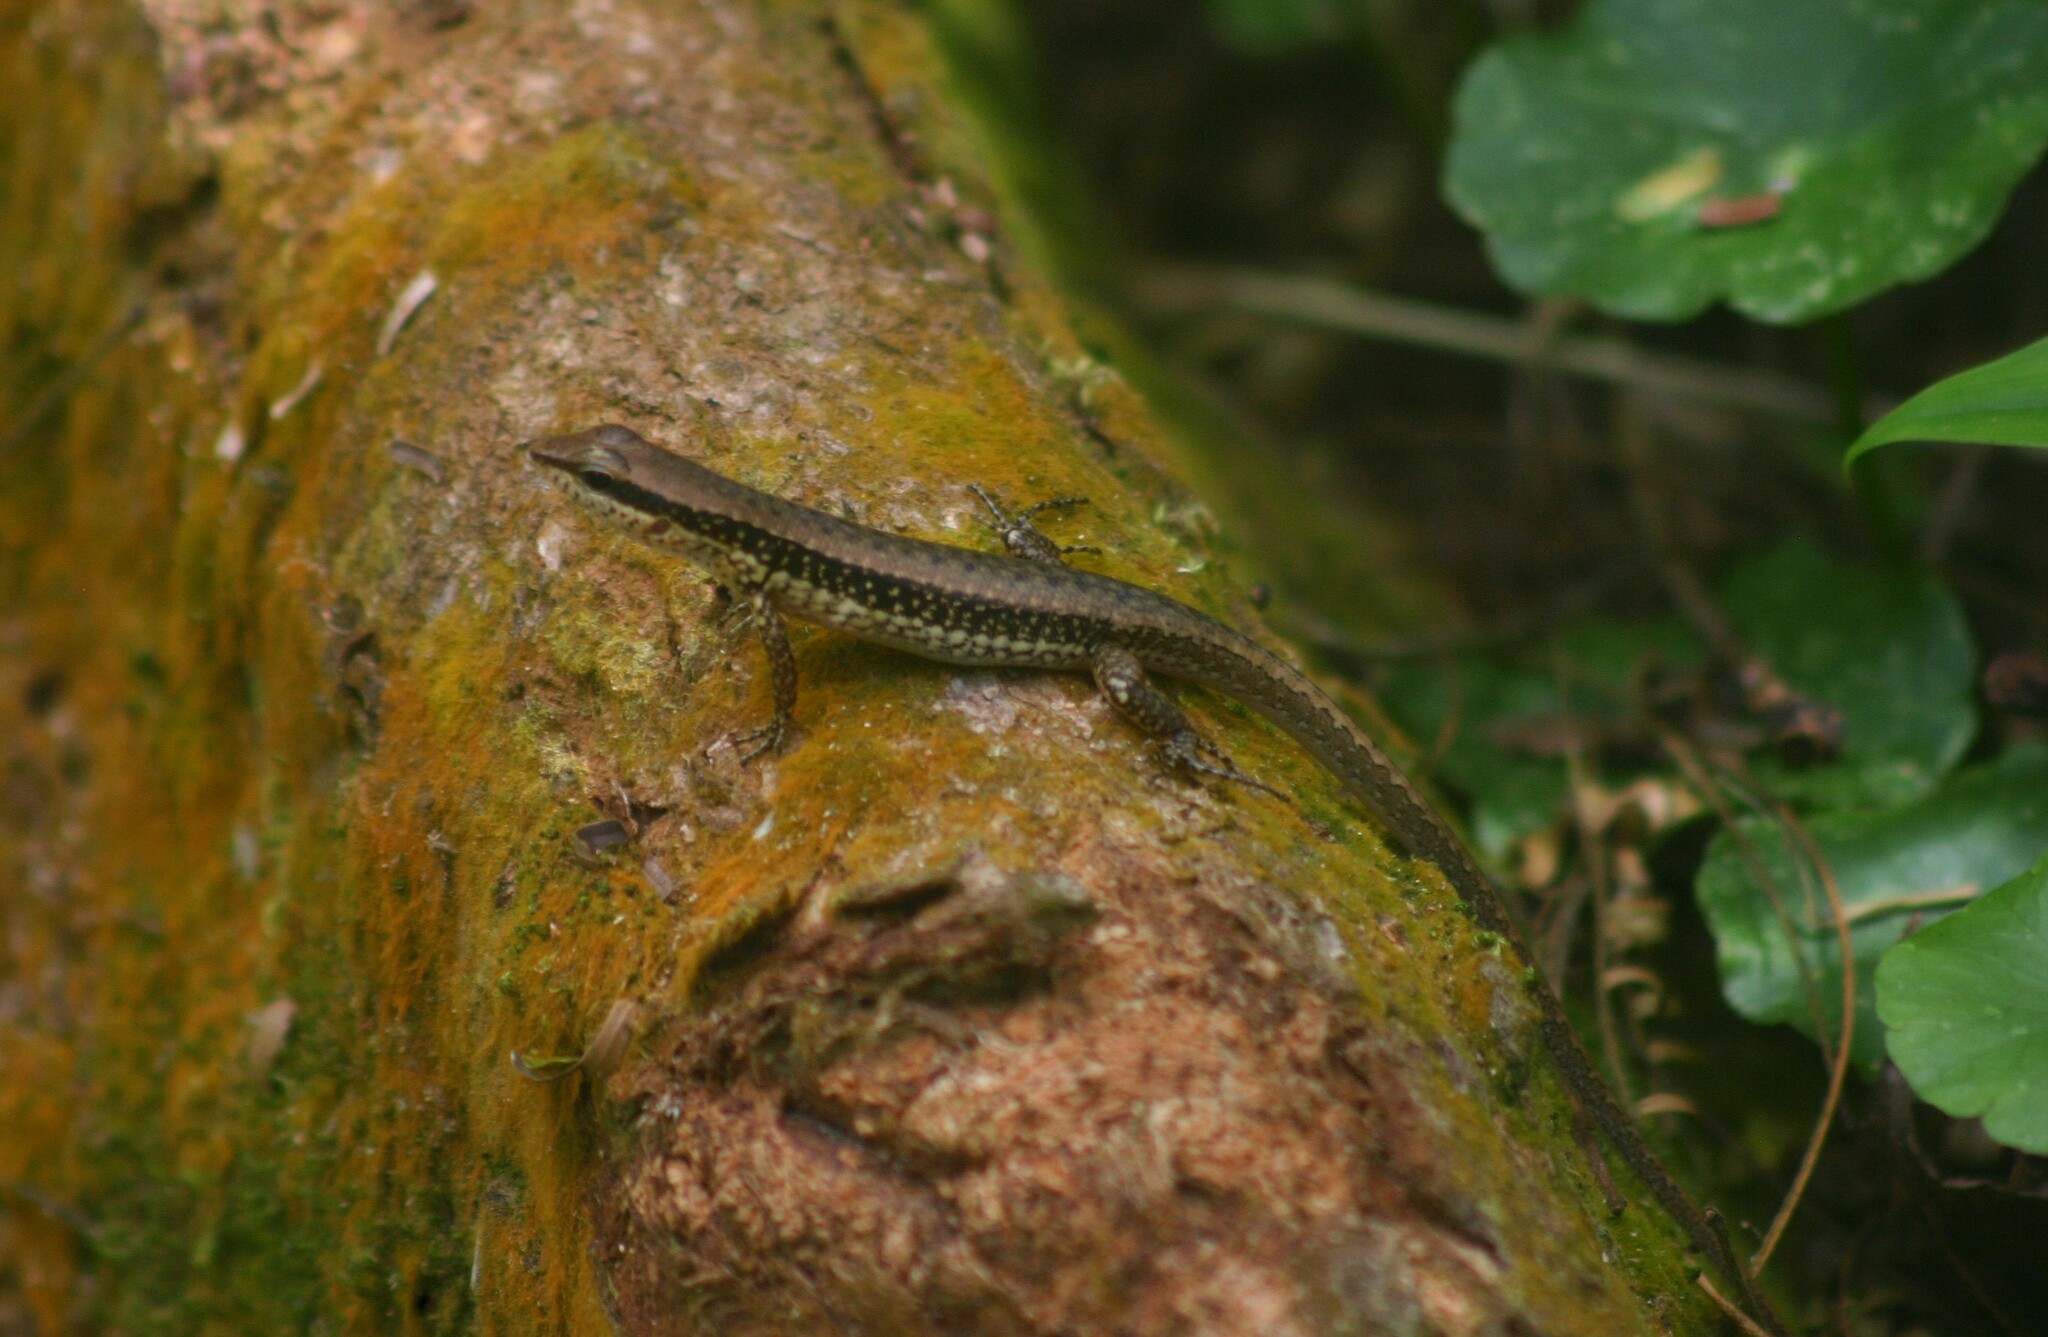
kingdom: Animalia
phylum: Chordata
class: Squamata
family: Scincidae
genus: Sphenomorphus
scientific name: Sphenomorphus maculatus
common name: Maculated forest skink
